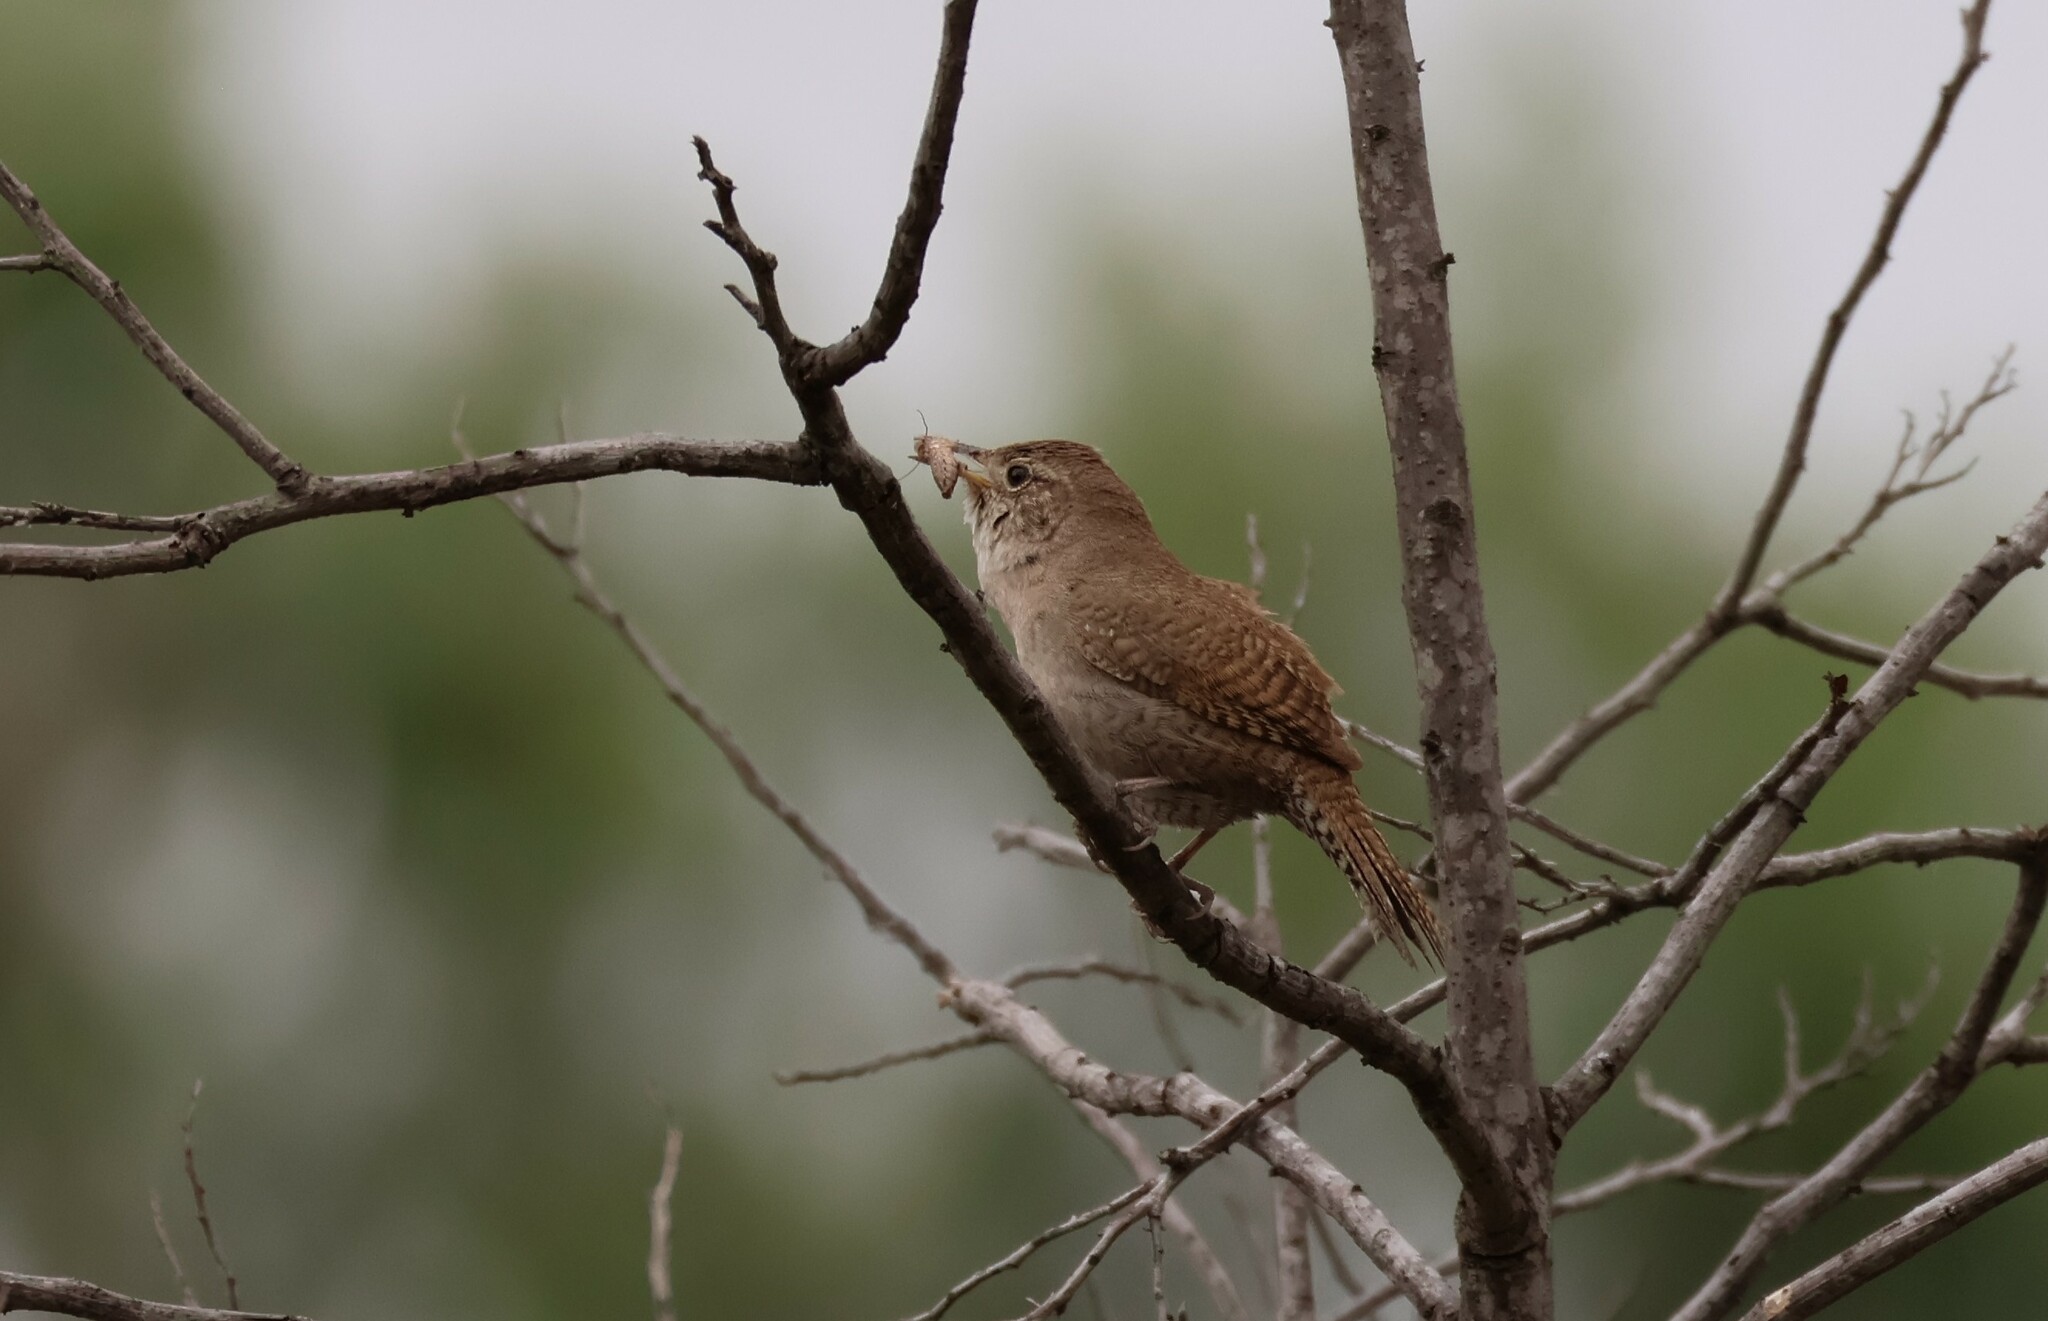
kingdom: Animalia
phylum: Chordata
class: Aves
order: Passeriformes
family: Troglodytidae
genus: Troglodytes
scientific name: Troglodytes aedon
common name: House wren
